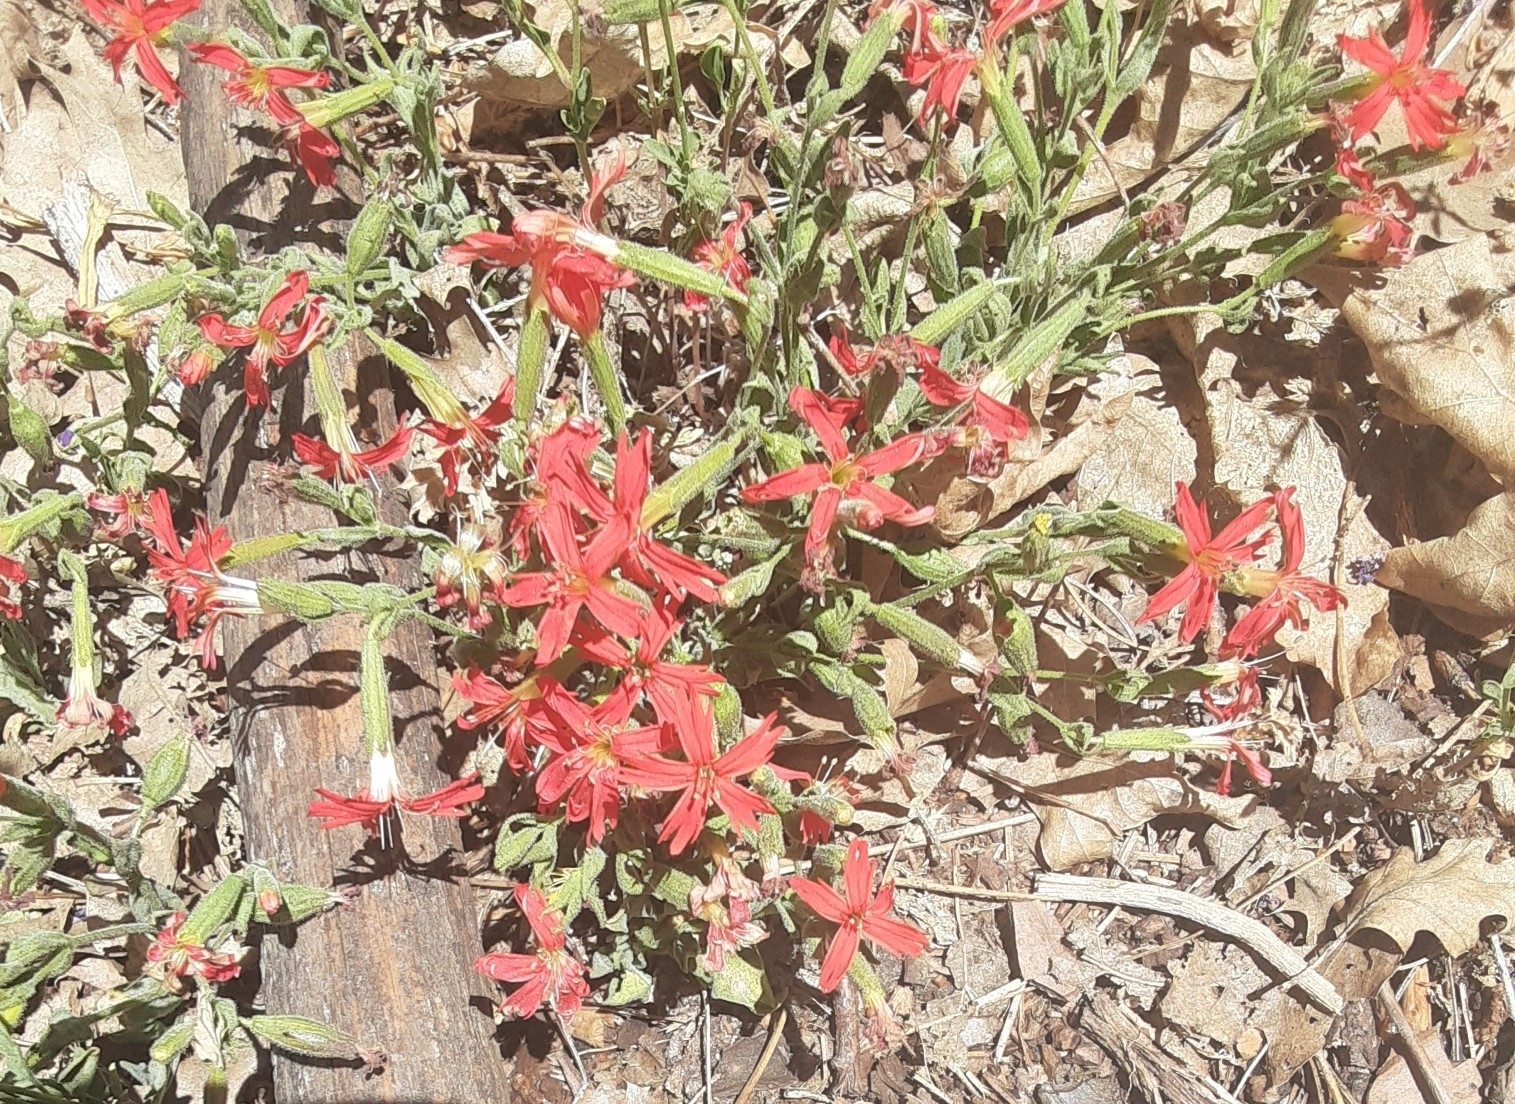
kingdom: Plantae
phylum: Tracheophyta
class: Magnoliopsida
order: Caryophyllales
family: Caryophyllaceae
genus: Silene
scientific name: Silene laciniata
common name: Indian-pink
